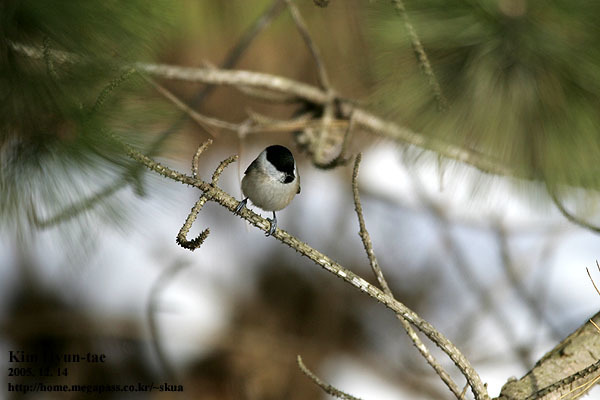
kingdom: Animalia
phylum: Chordata
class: Aves
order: Passeriformes
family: Paridae
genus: Poecile
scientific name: Poecile palustris
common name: Marsh tit
